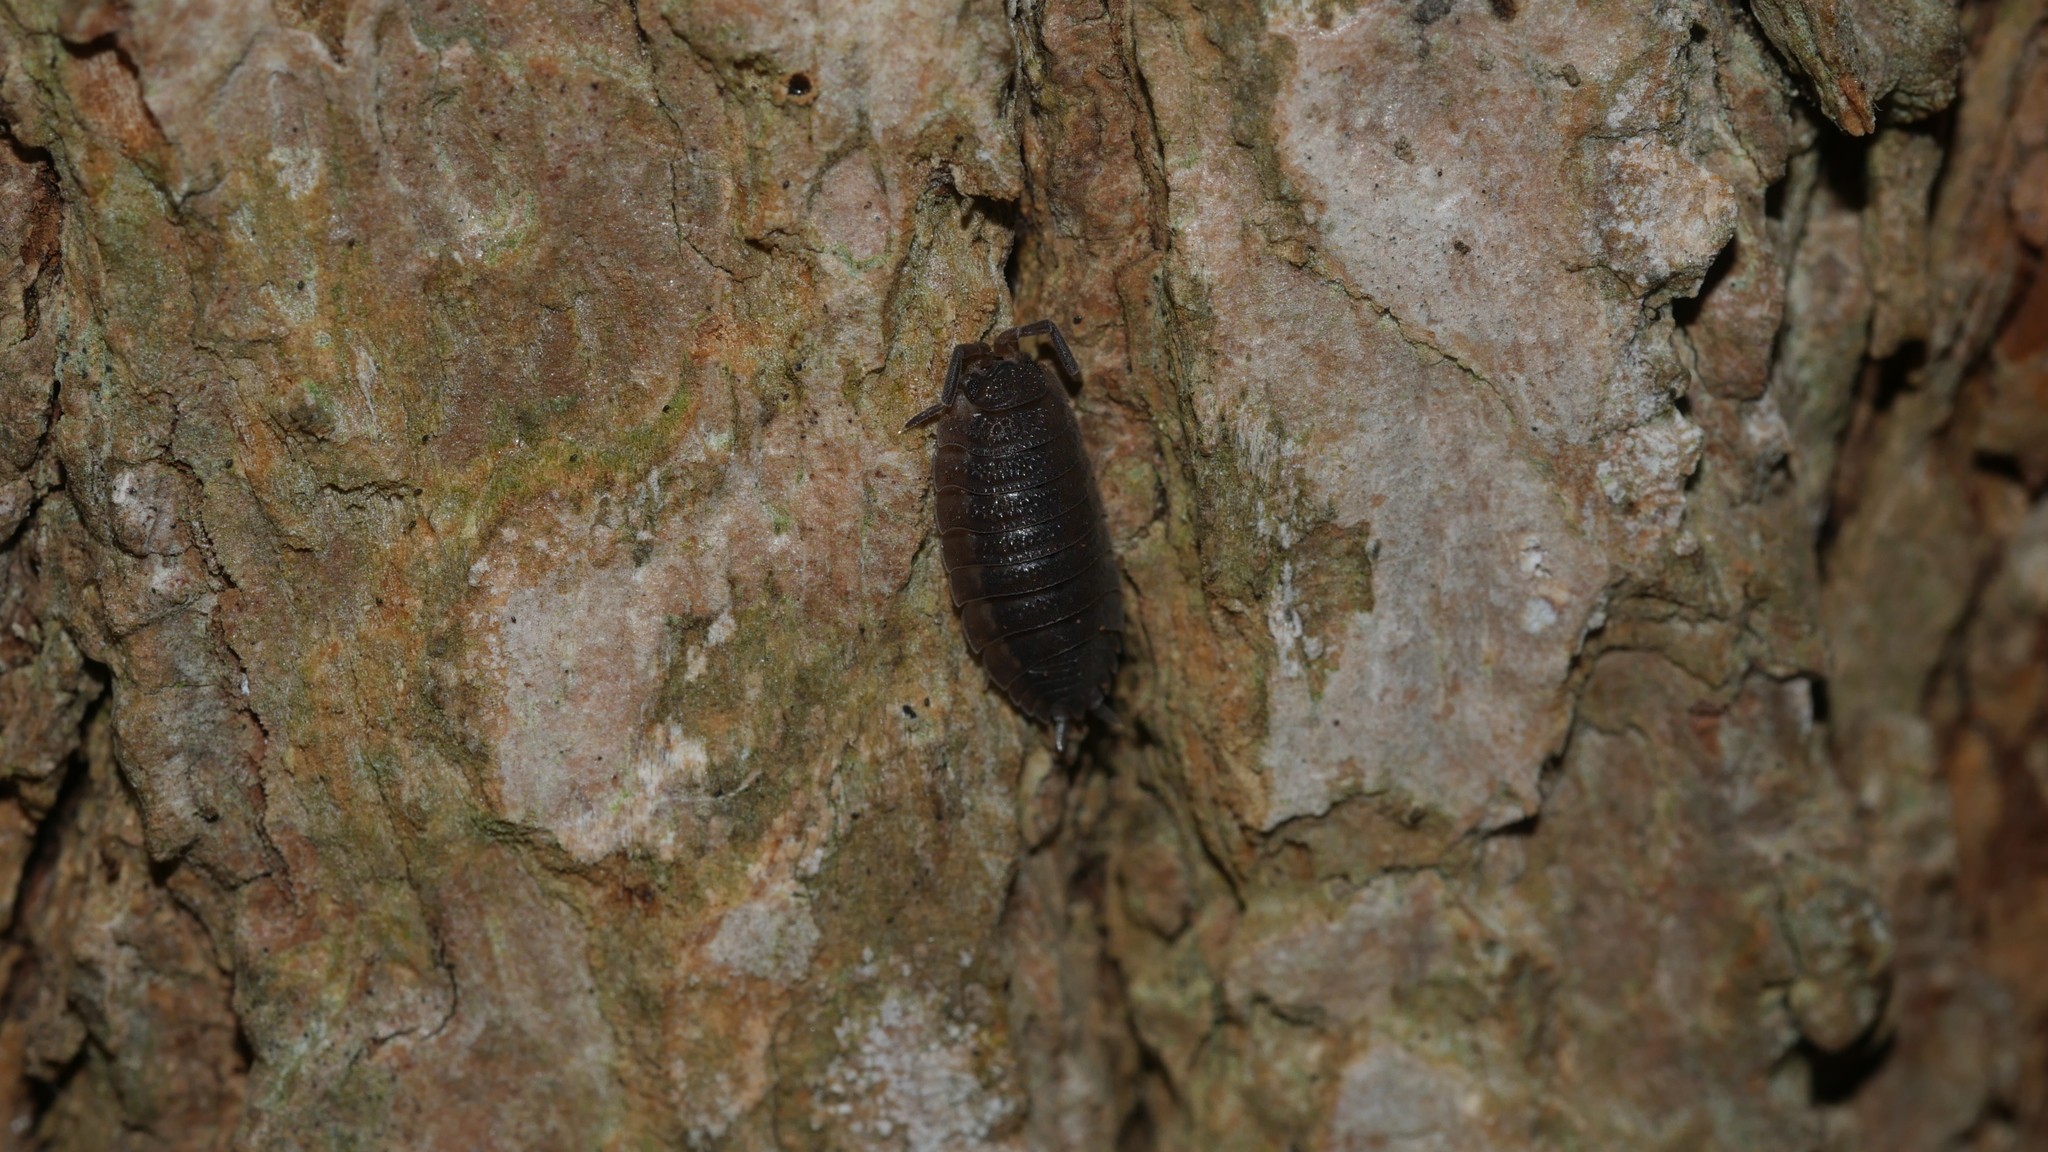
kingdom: Animalia
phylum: Arthropoda
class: Malacostraca
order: Isopoda
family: Porcellionidae
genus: Porcellio
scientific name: Porcellio scaber
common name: Common rough woodlouse
